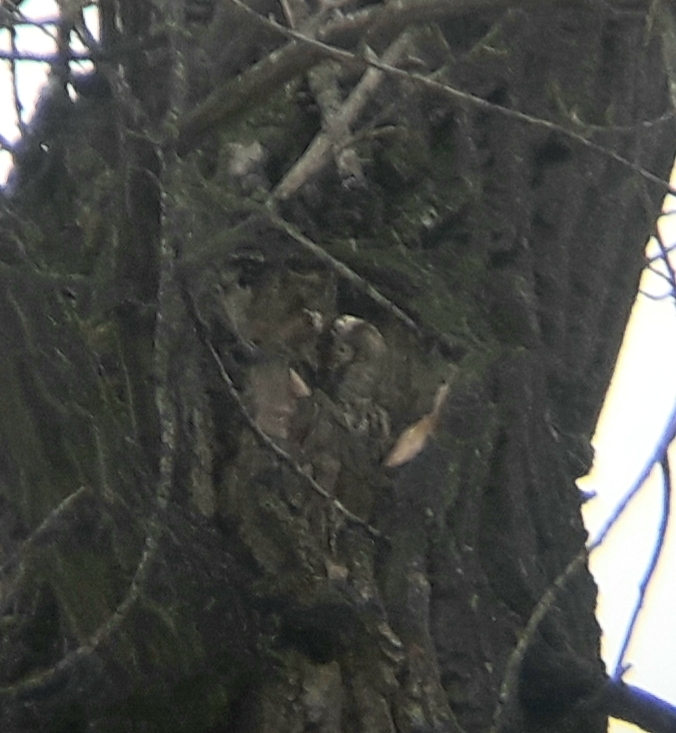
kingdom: Animalia
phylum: Chordata
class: Aves
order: Strigiformes
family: Strigidae
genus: Strix
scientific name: Strix aluco
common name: Tawny owl
